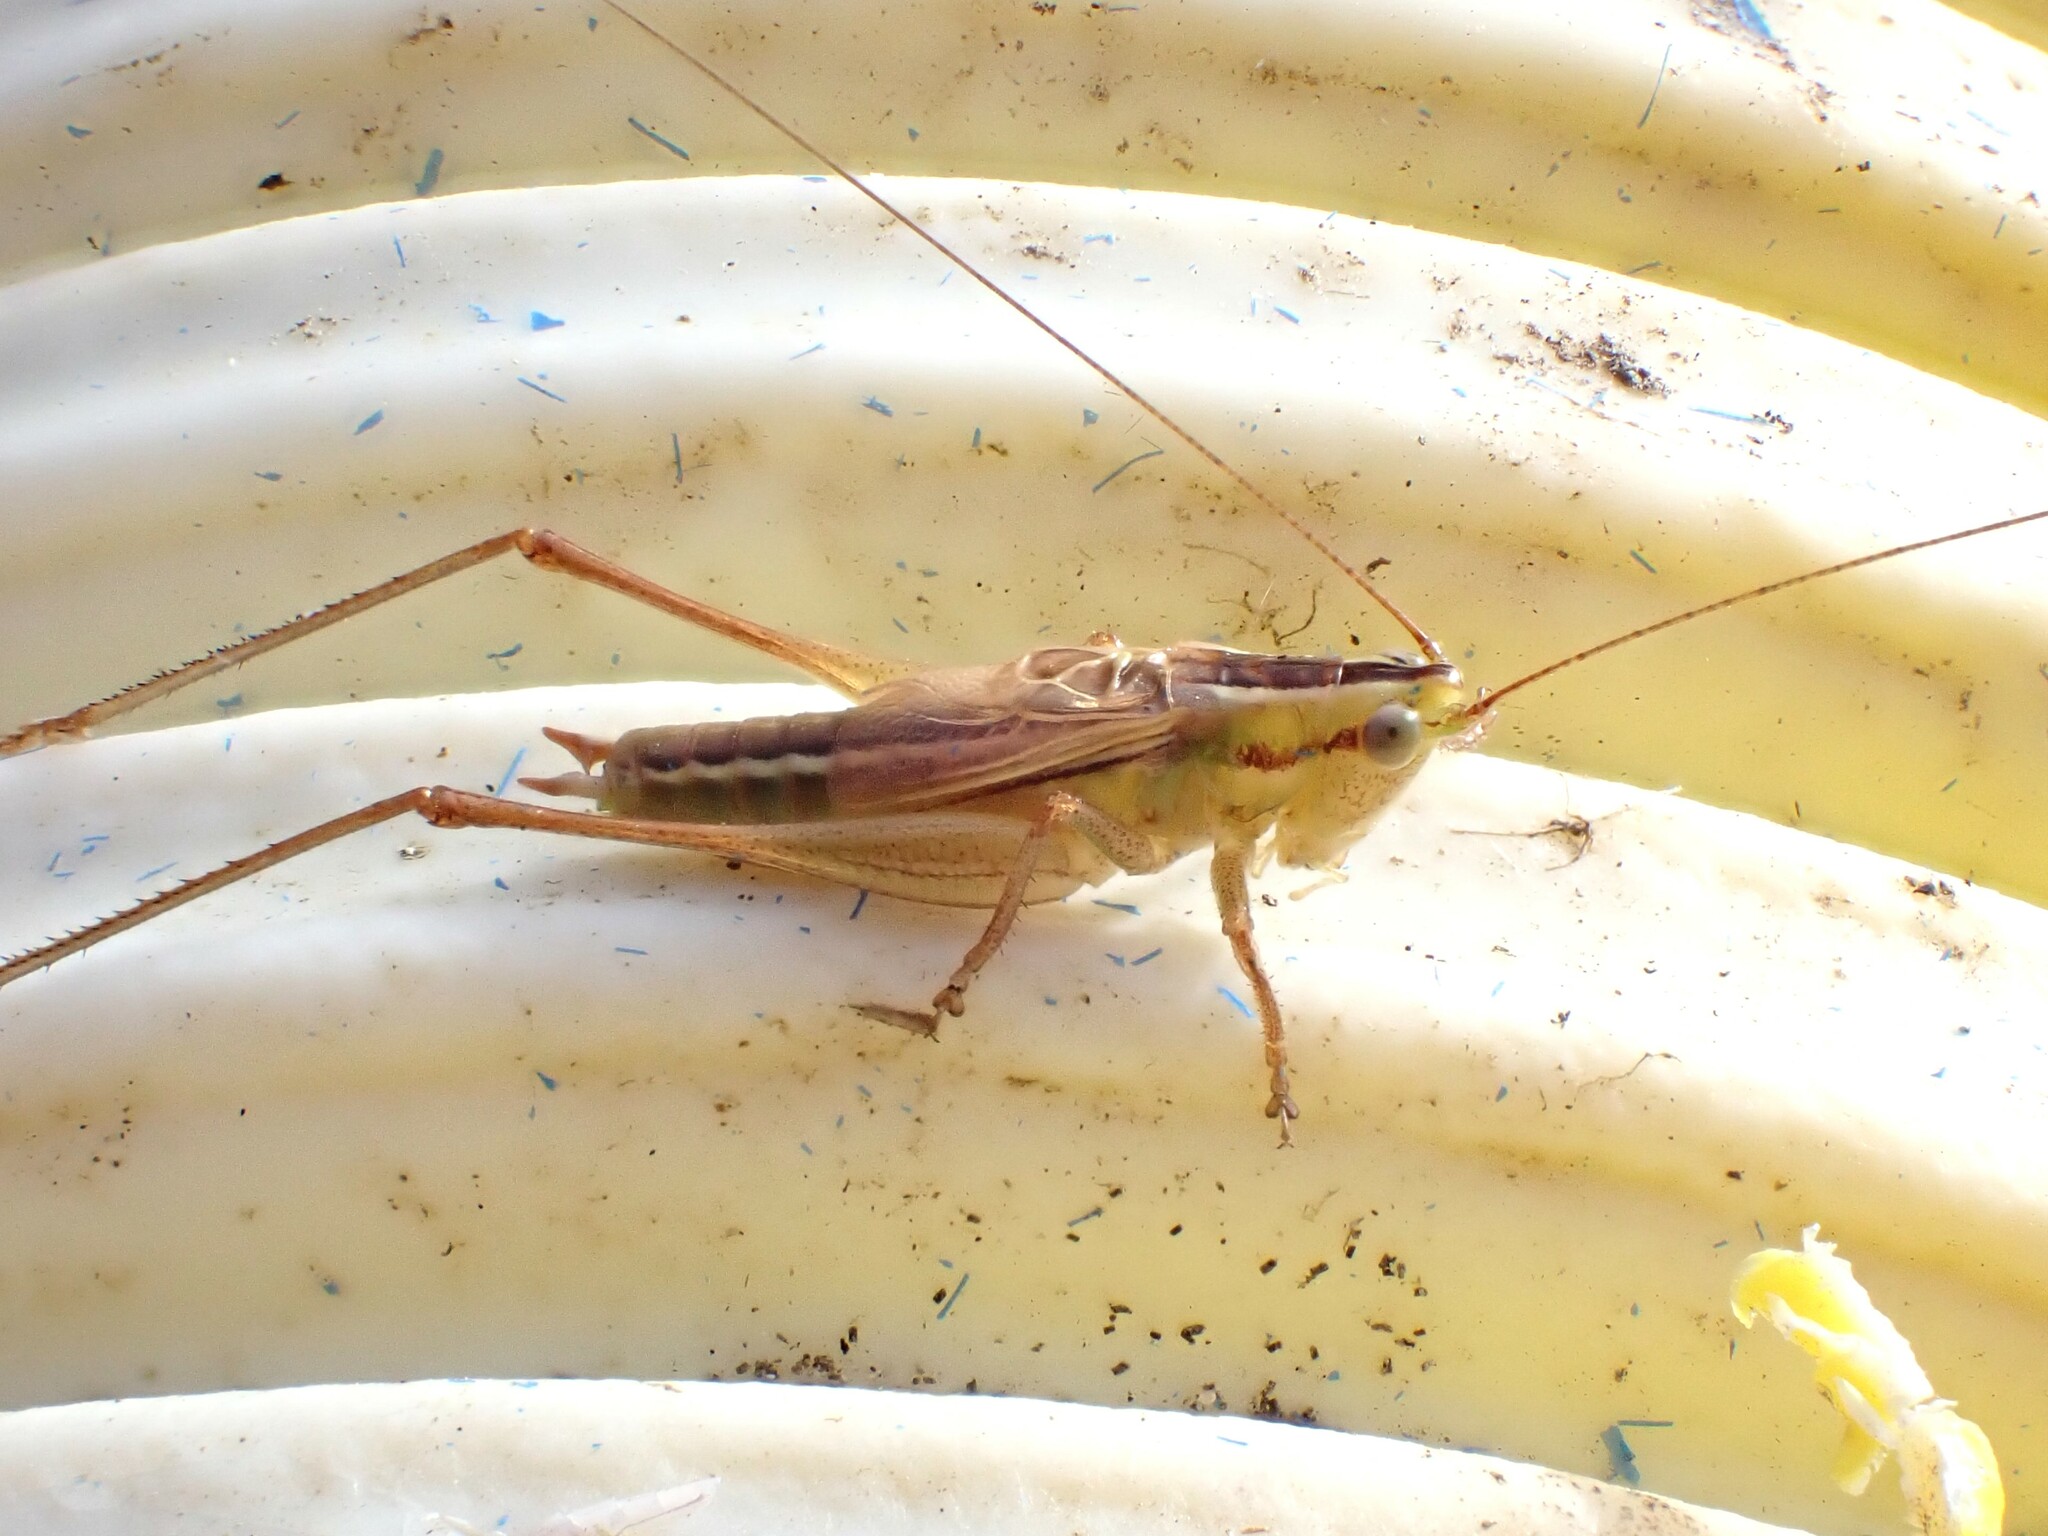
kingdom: Animalia
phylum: Arthropoda
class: Insecta
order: Orthoptera
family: Tettigoniidae
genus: Conocephalus
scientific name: Conocephalus bilineatus
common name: Small meadow katydid
